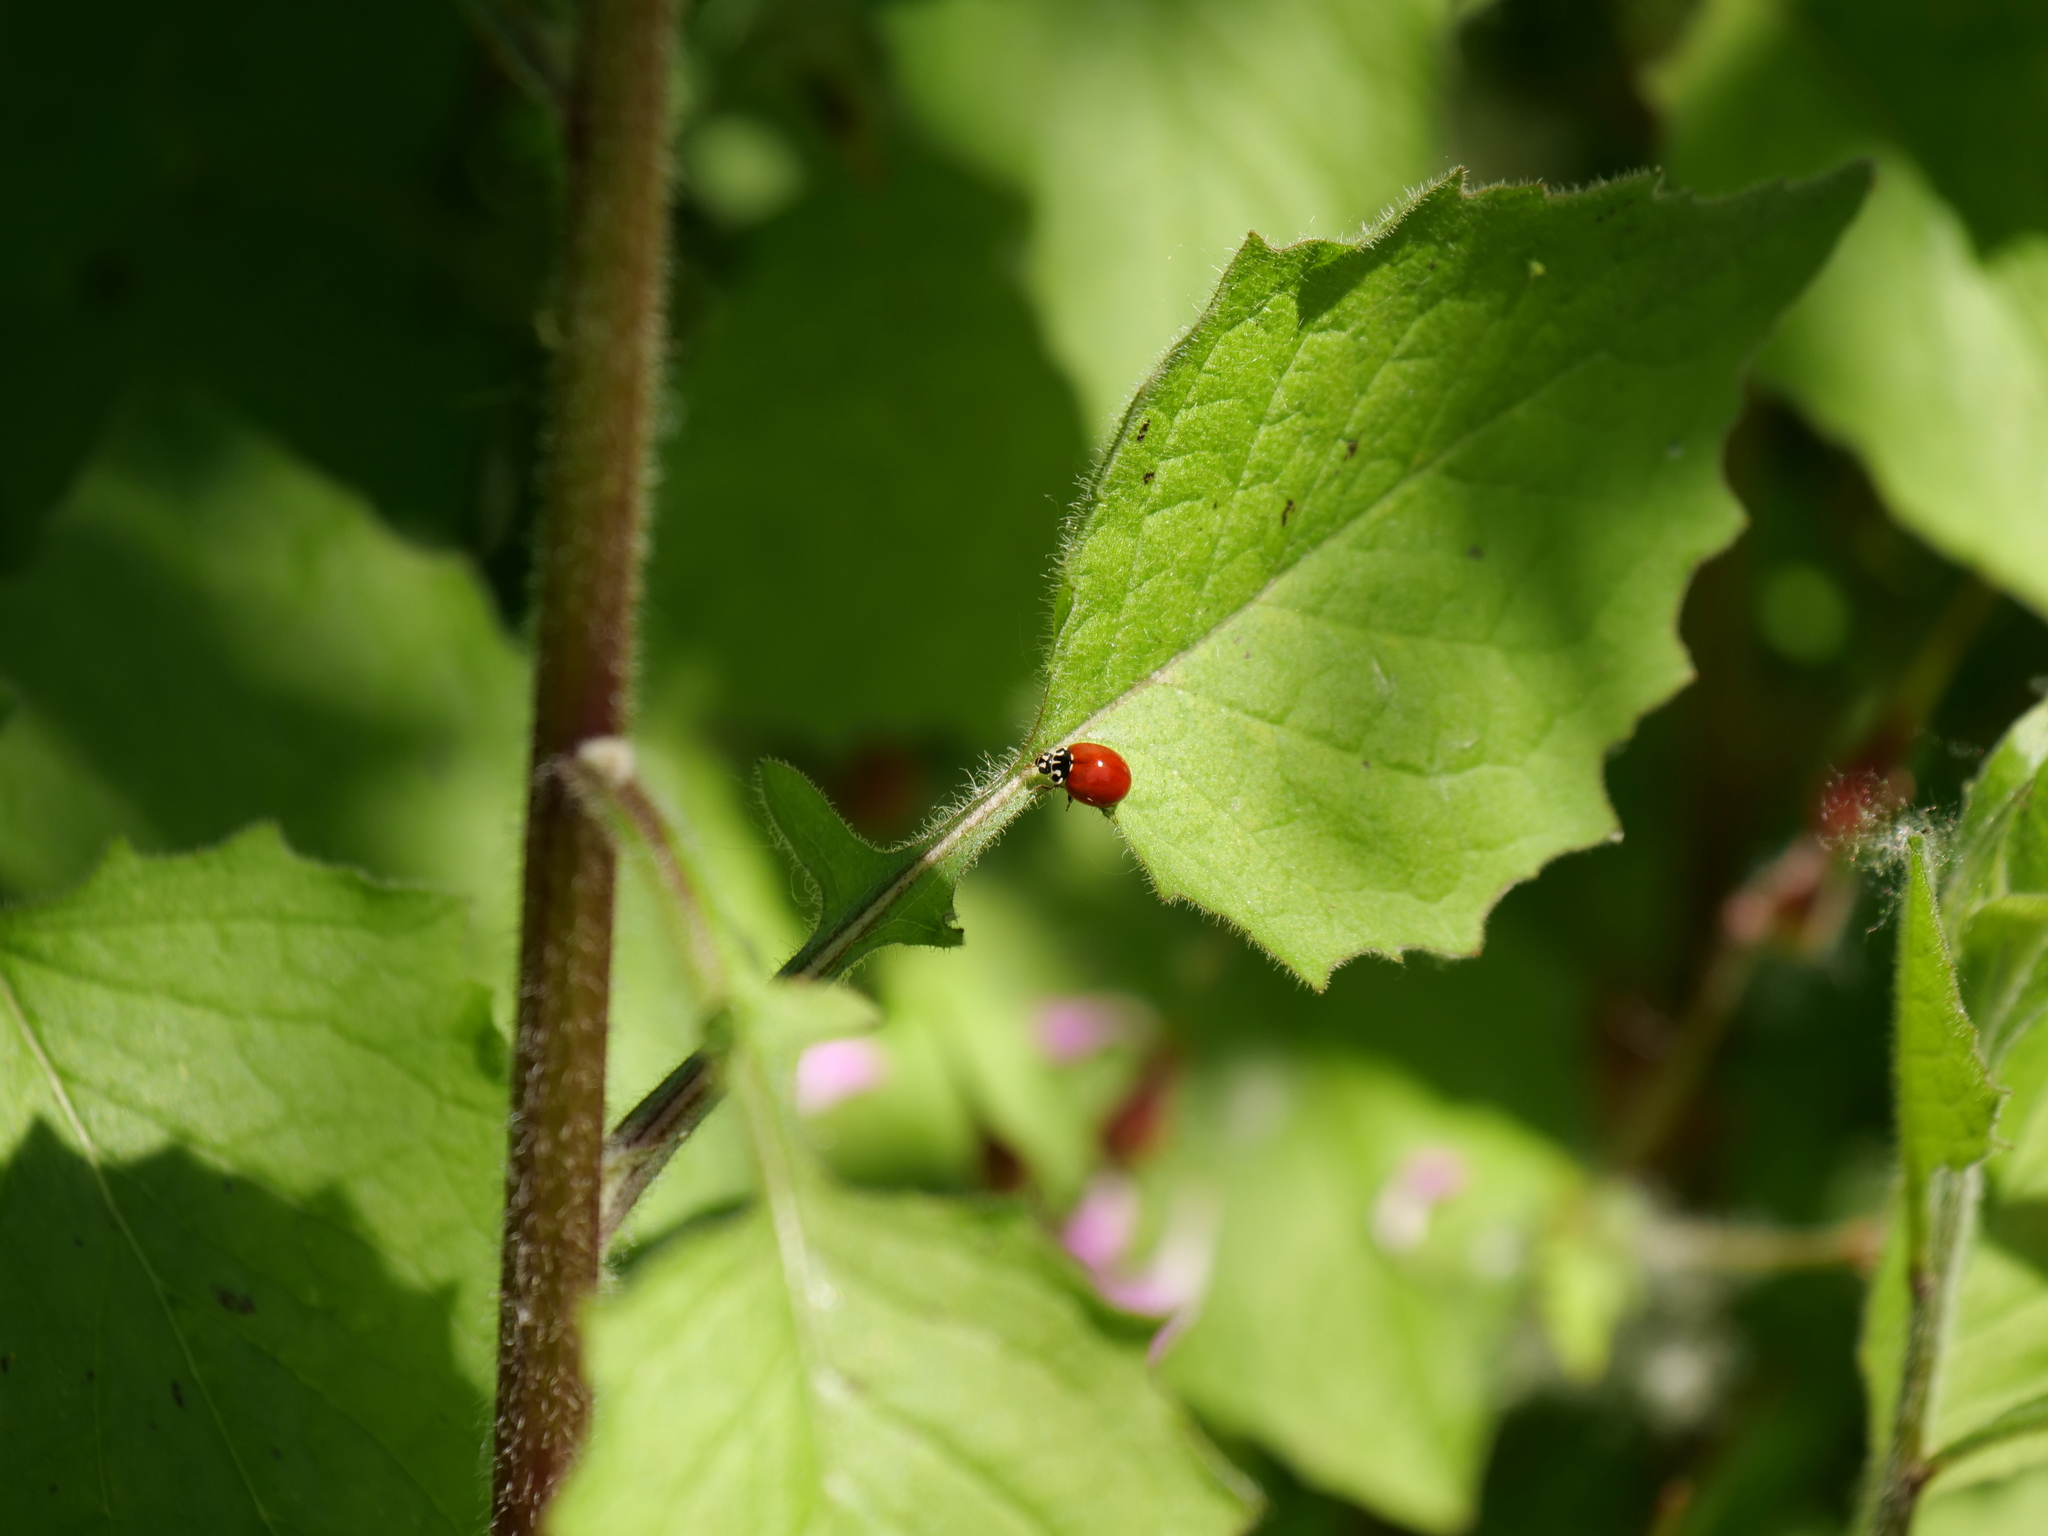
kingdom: Animalia
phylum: Arthropoda
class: Insecta
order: Coleoptera
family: Coccinellidae
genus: Cycloneda
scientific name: Cycloneda polita
